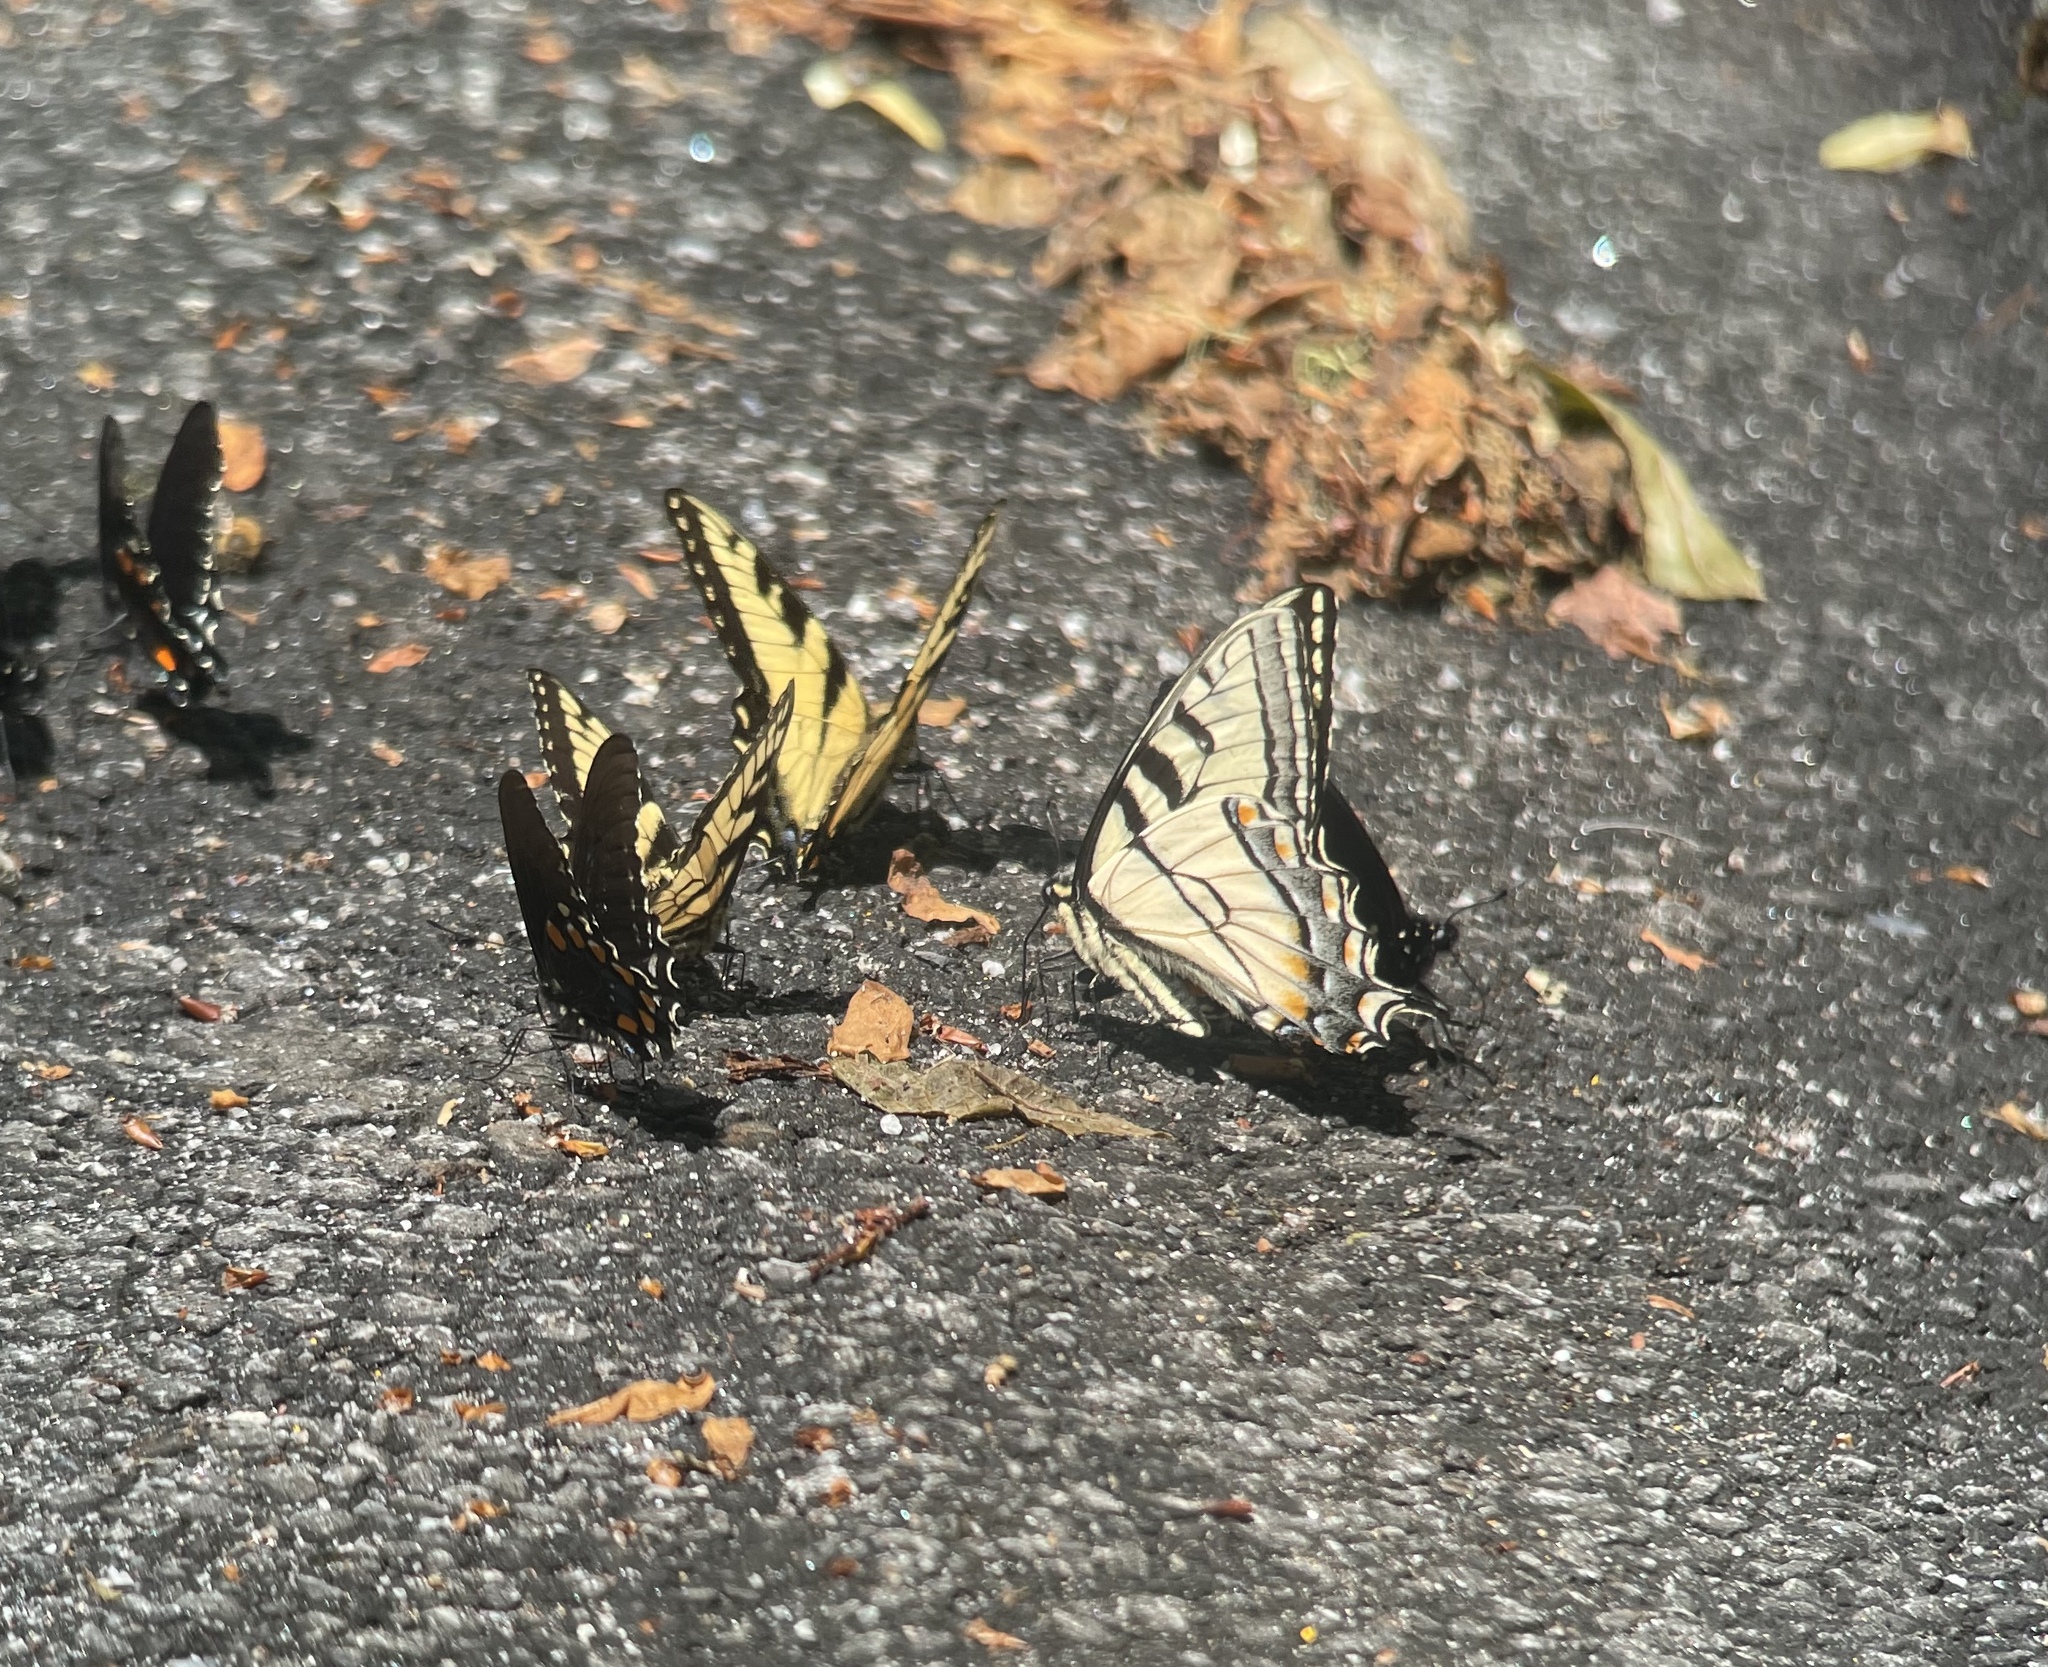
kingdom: Animalia
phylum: Arthropoda
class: Insecta
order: Lepidoptera
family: Papilionidae
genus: Papilio
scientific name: Papilio appalachiensis
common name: Appalachian tiger swallowtail
